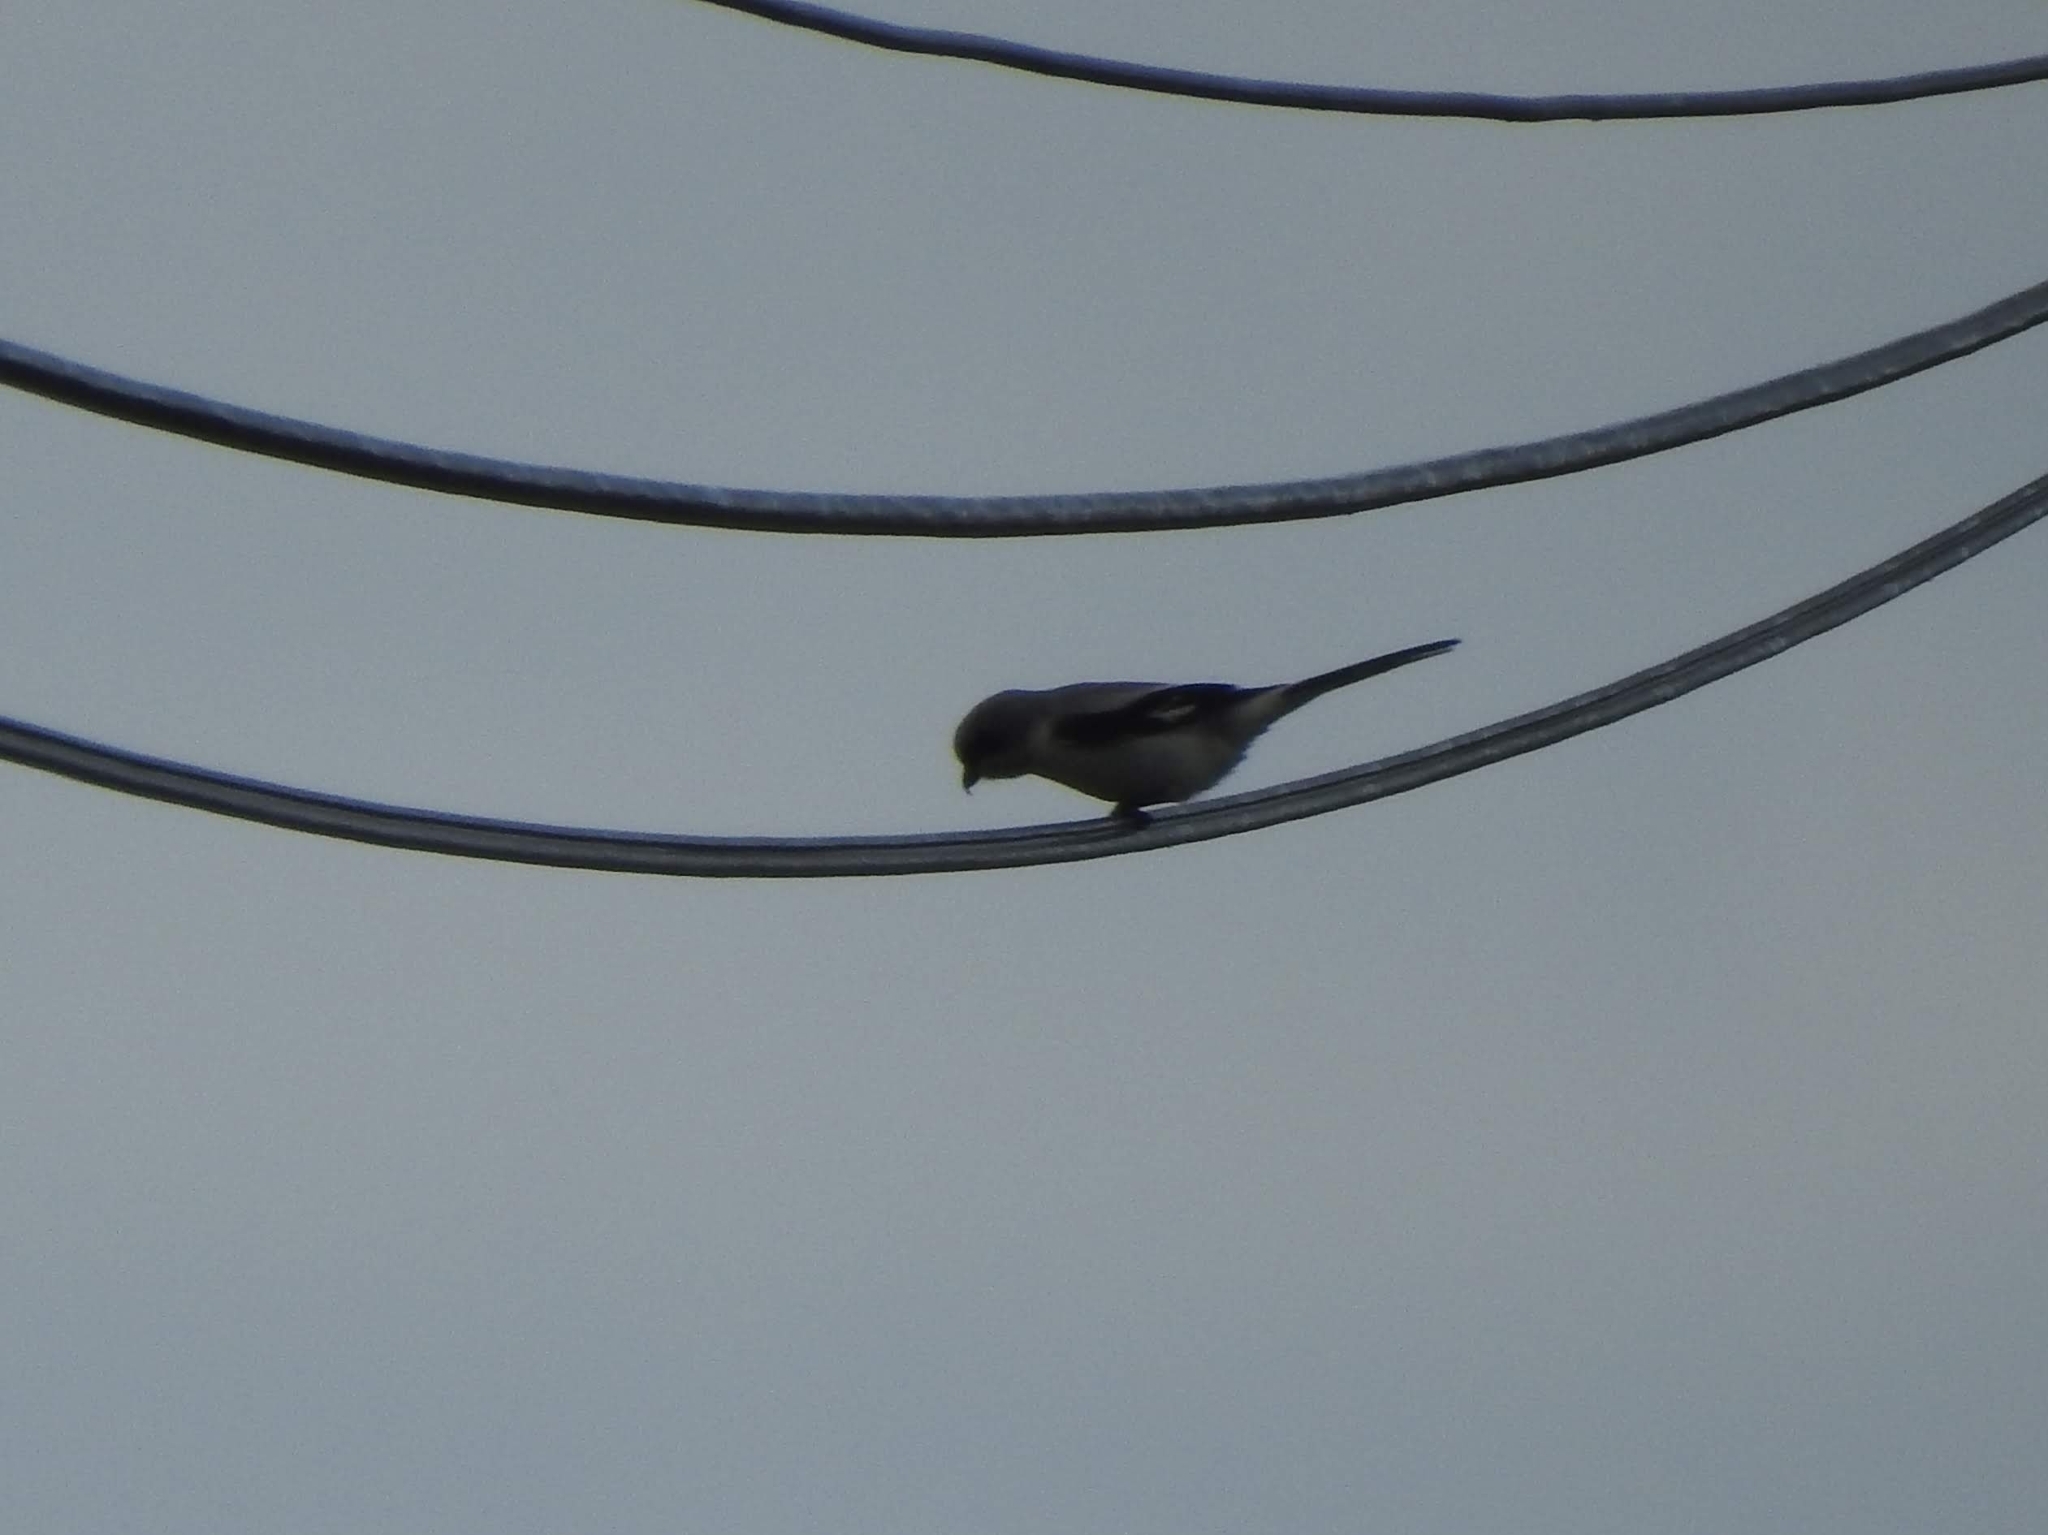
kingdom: Animalia
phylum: Chordata
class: Aves
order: Passeriformes
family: Laniidae
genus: Lanius
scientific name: Lanius excubitor
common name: Great grey shrike
